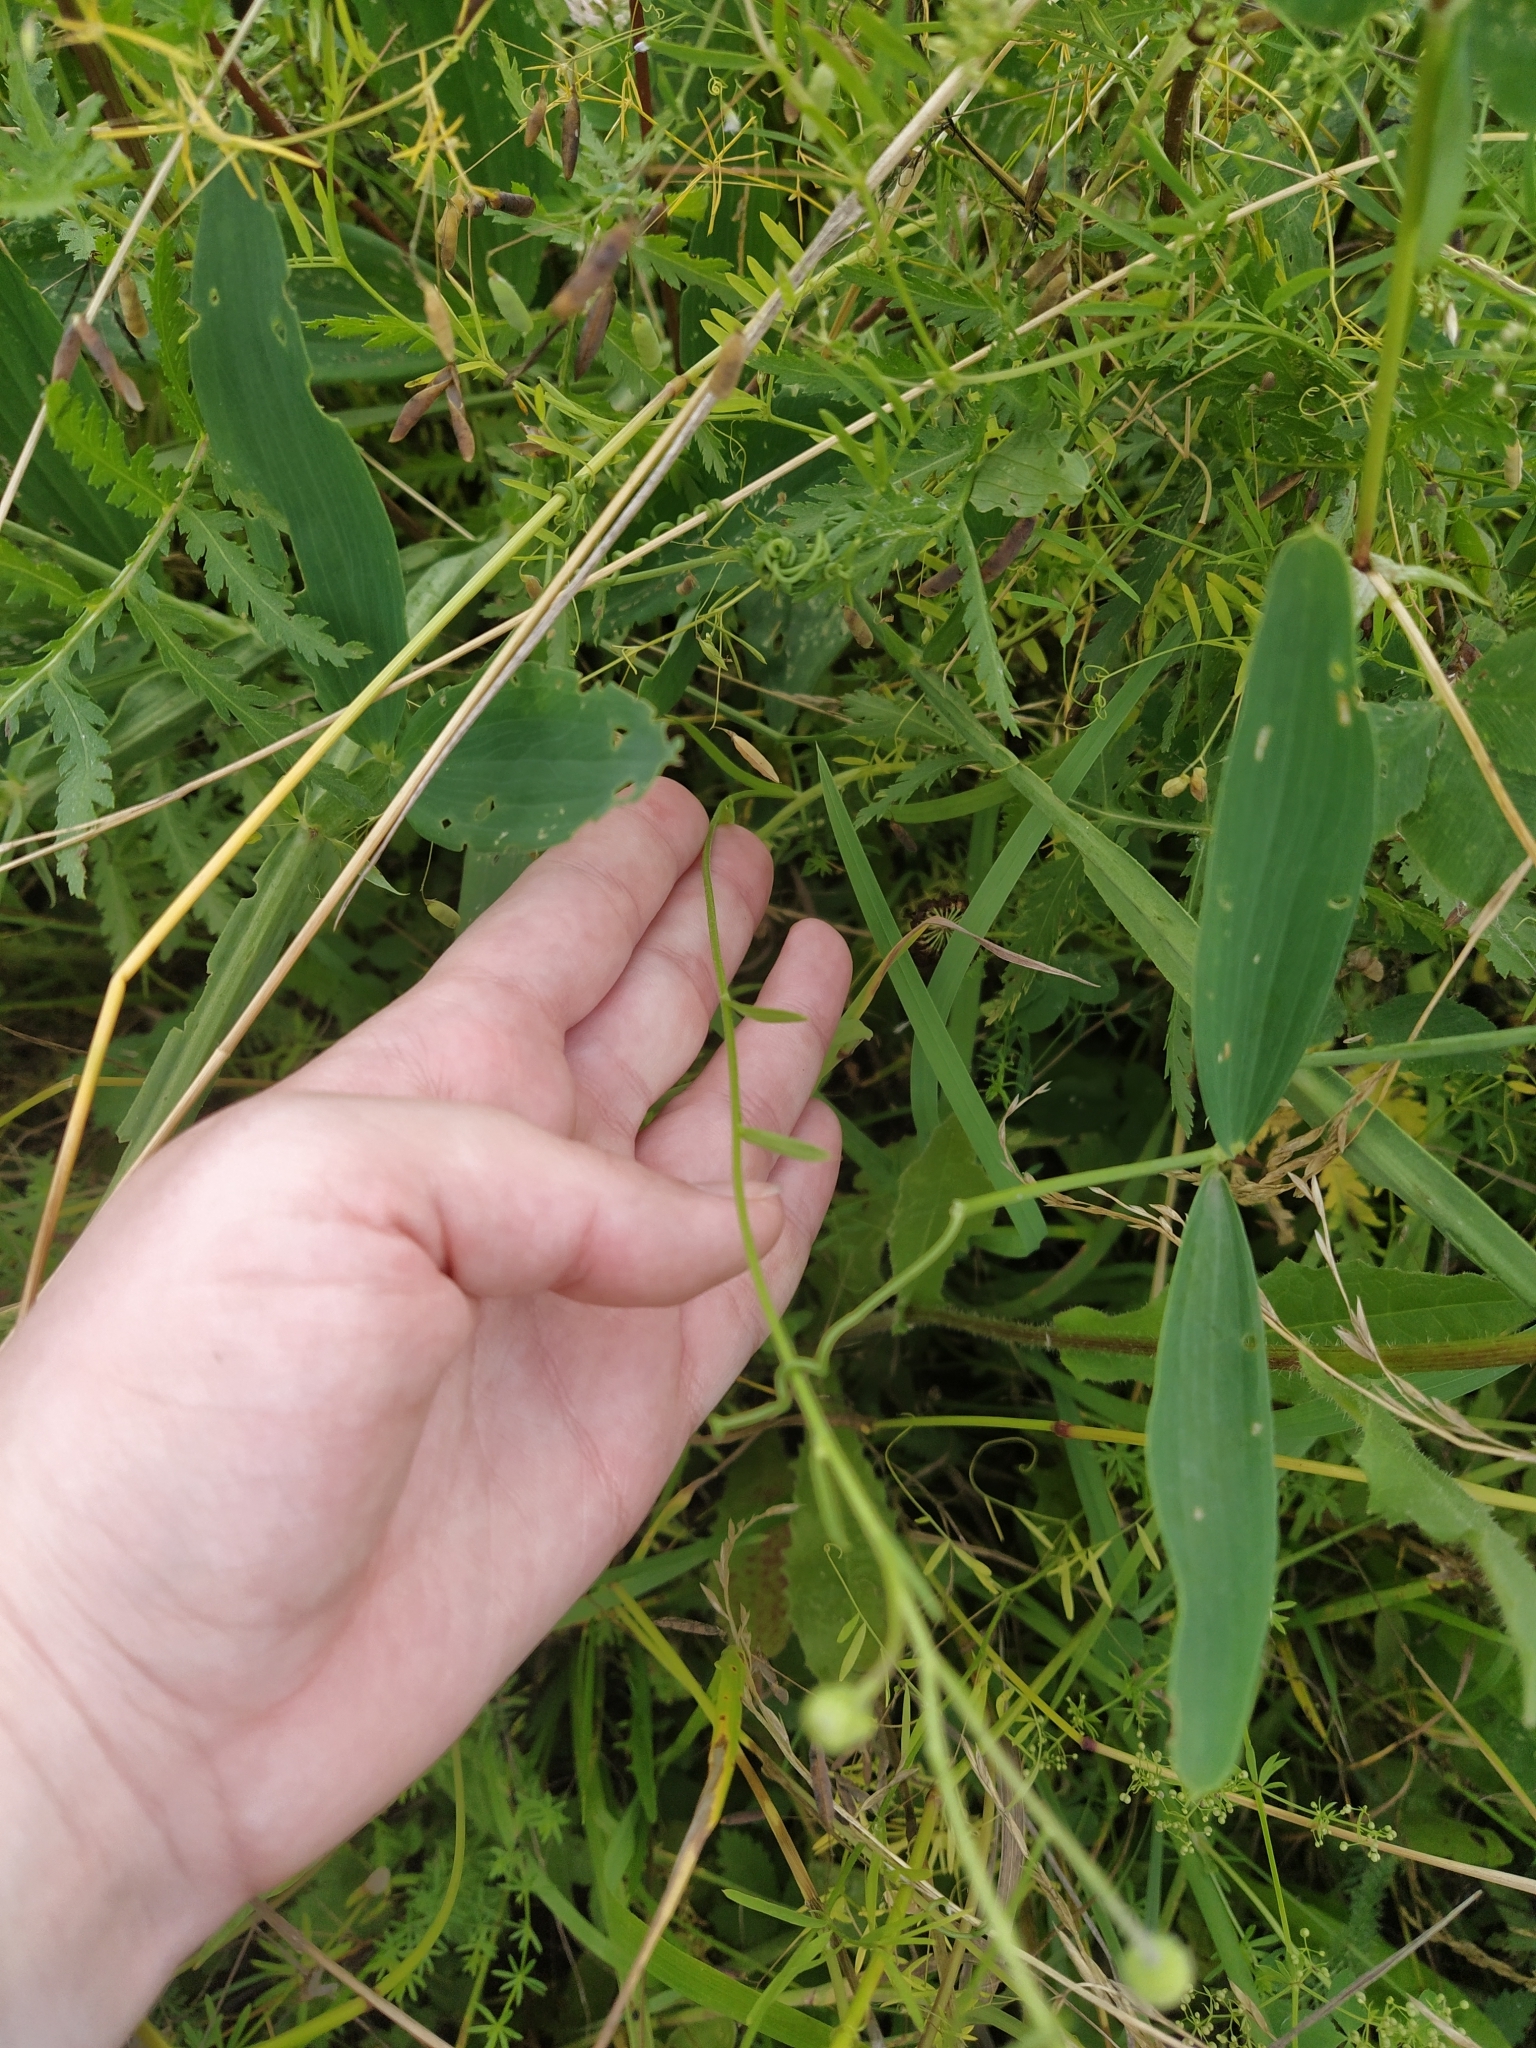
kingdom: Plantae
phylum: Tracheophyta
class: Magnoliopsida
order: Asterales
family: Asteraceae
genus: Erigeron
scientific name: Erigeron strigosus
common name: Common eastern fleabane
